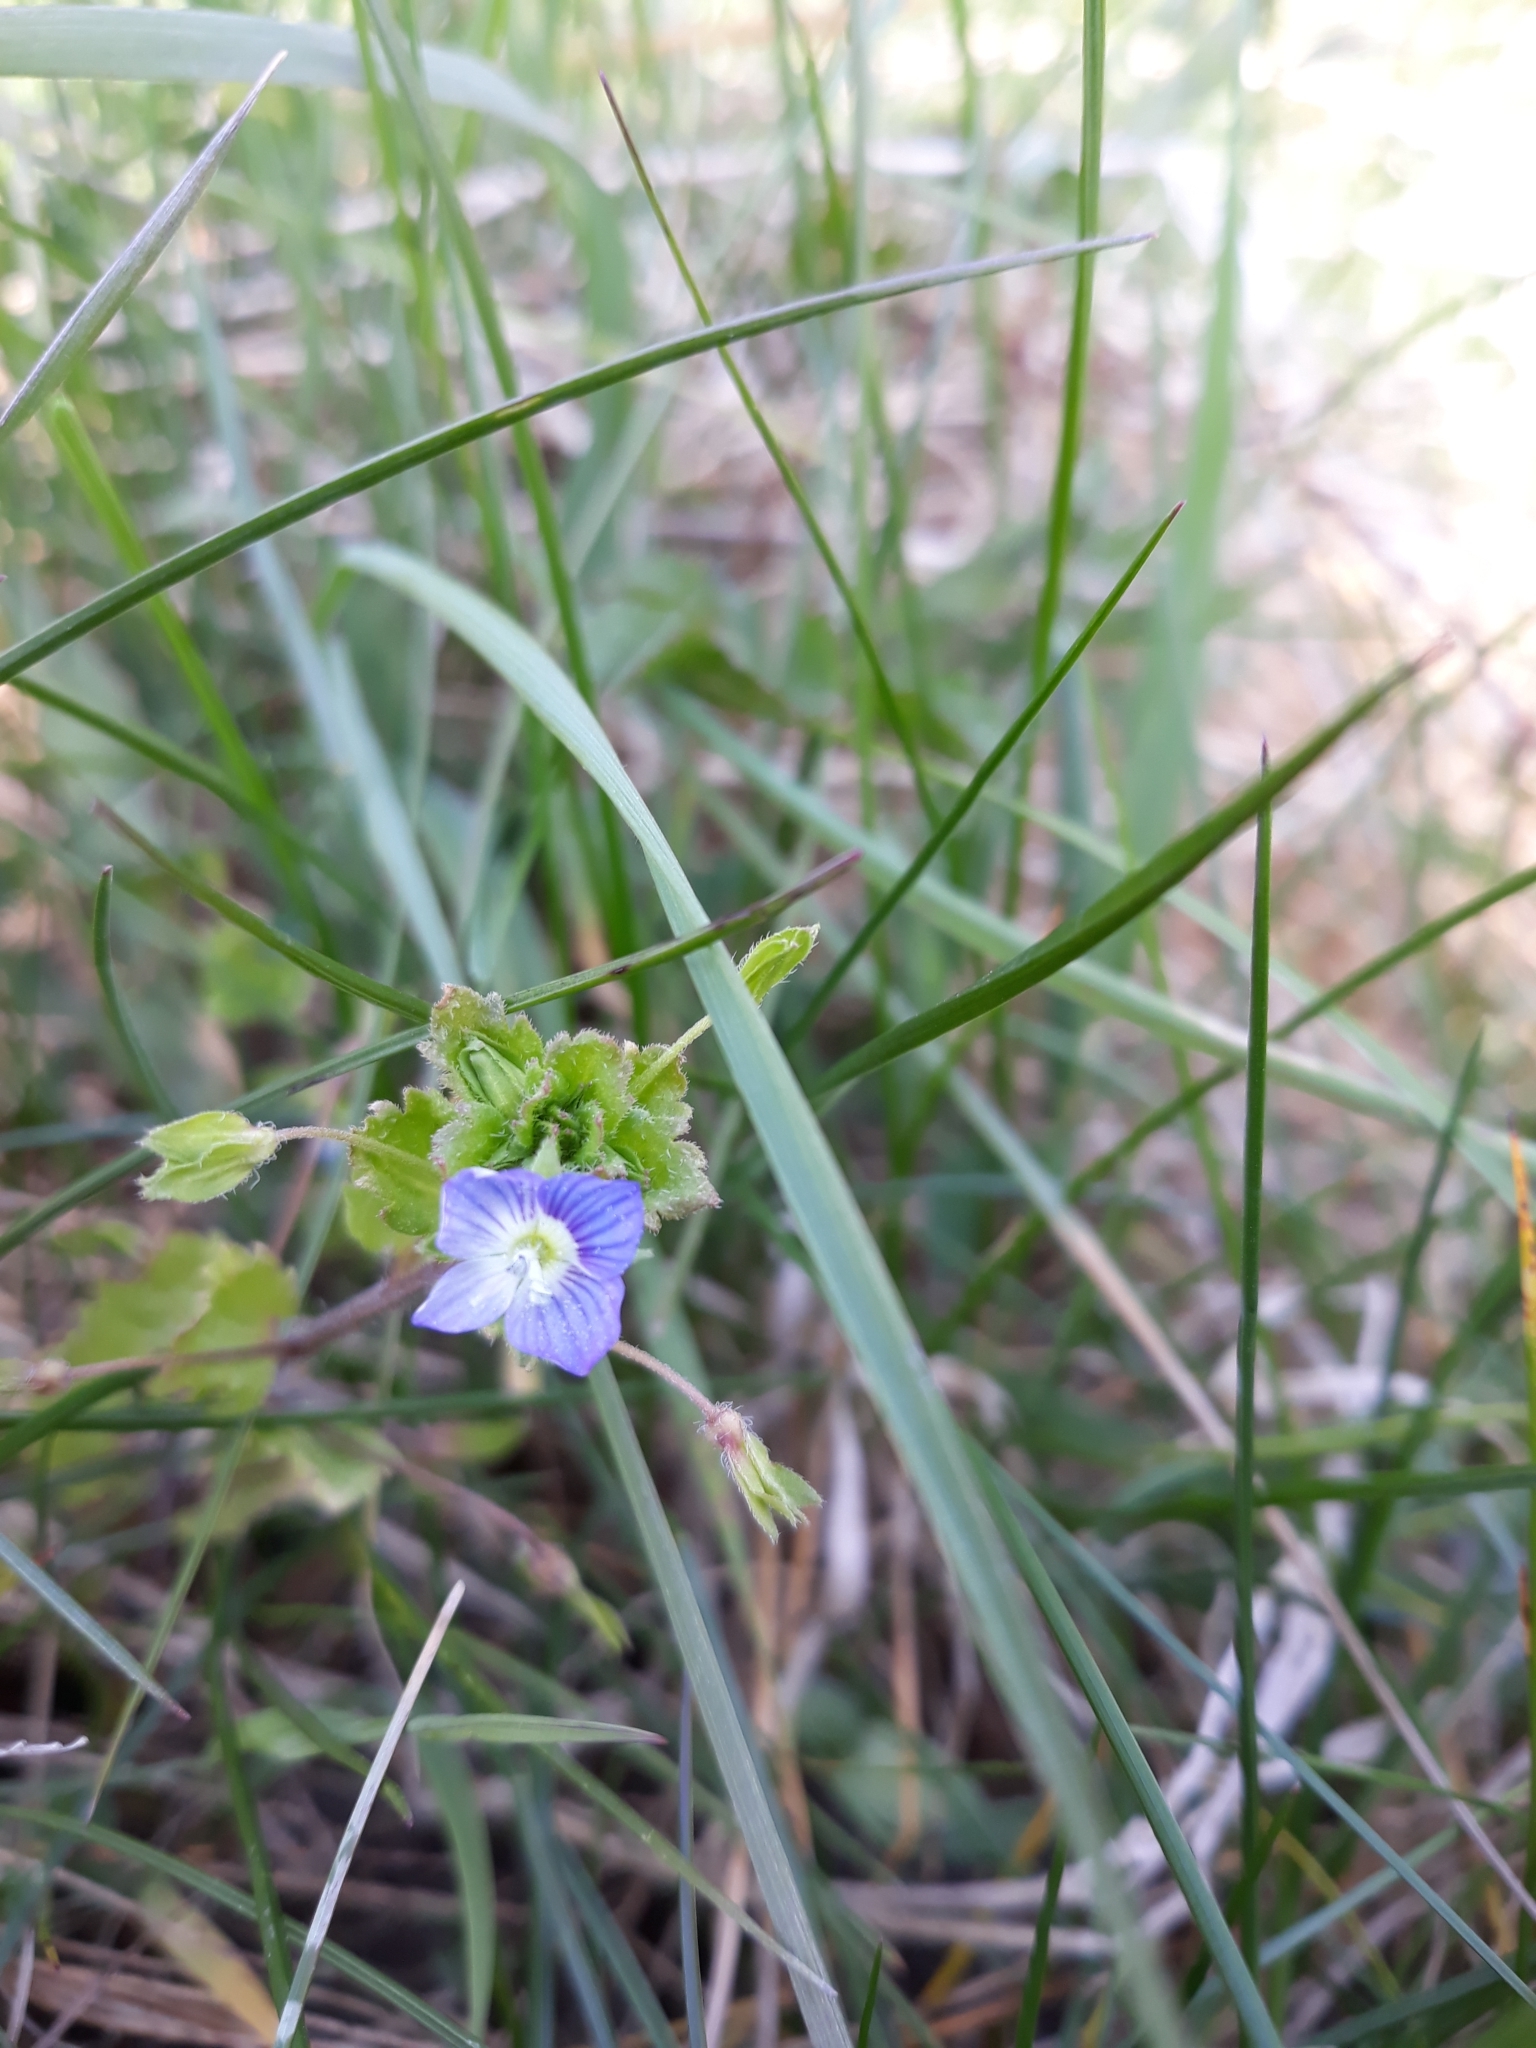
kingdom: Plantae
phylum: Tracheophyta
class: Magnoliopsida
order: Lamiales
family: Plantaginaceae
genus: Veronica
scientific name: Veronica persica
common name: Common field-speedwell
